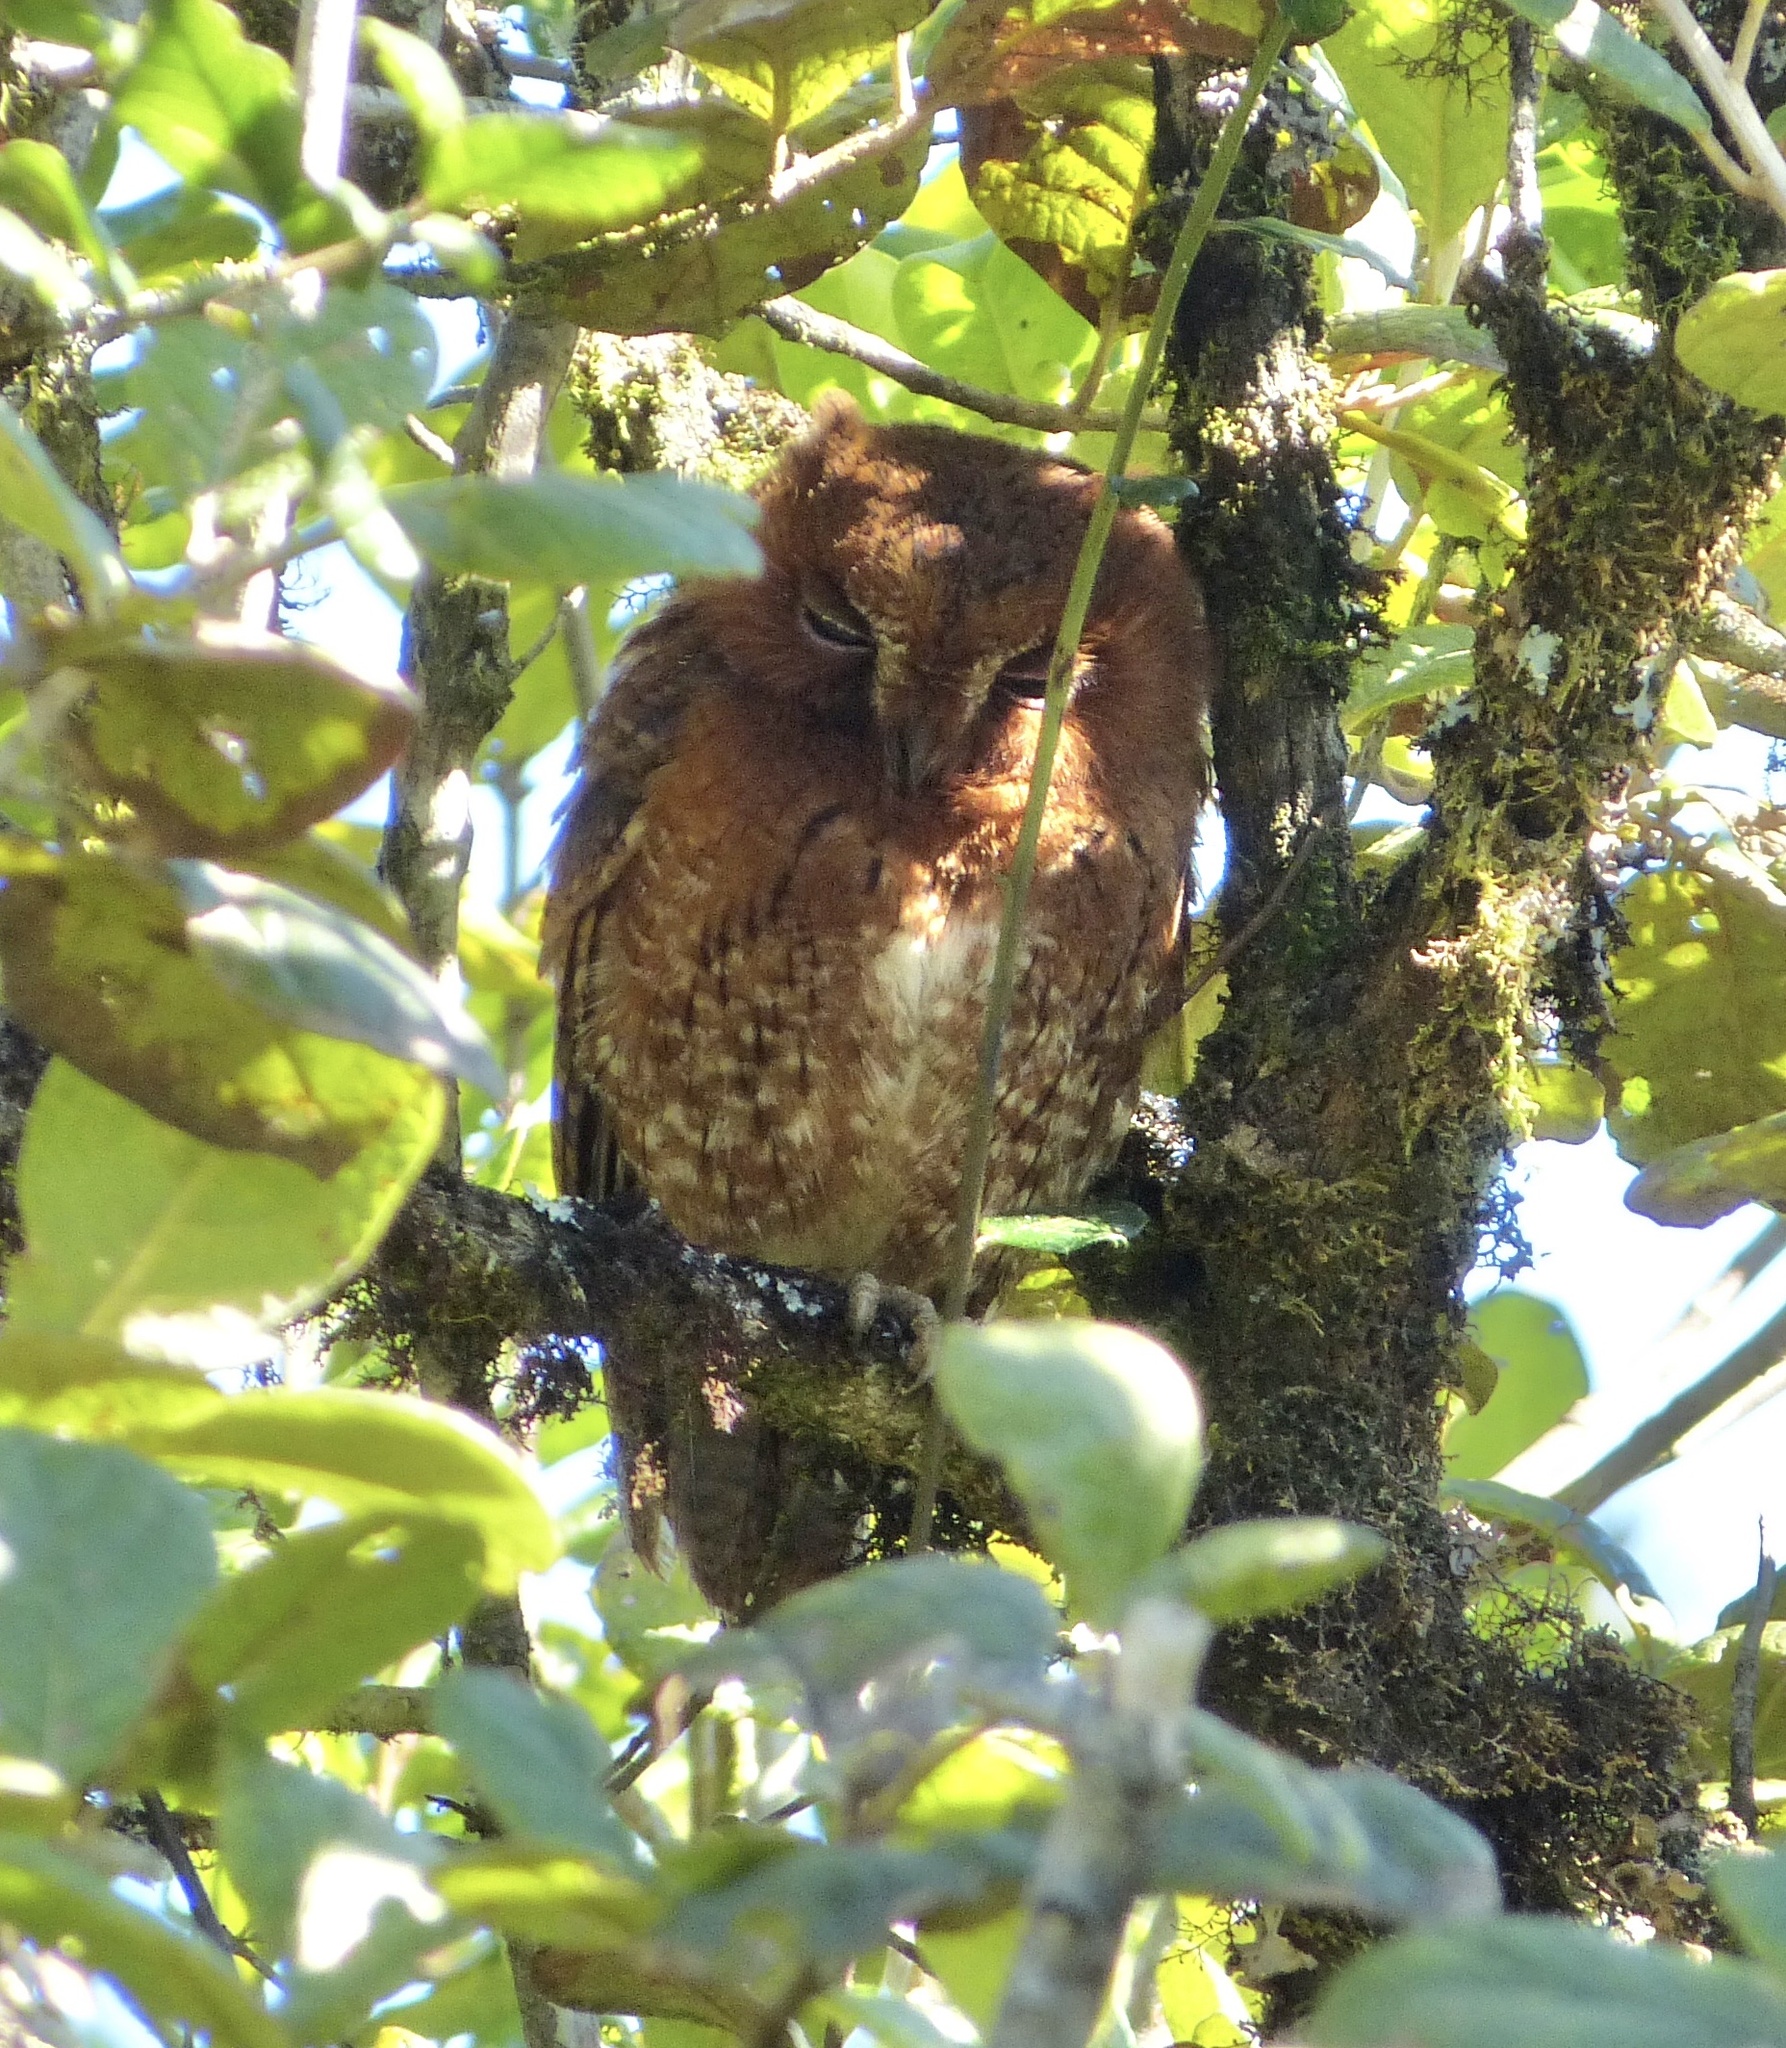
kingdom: Animalia
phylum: Chordata
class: Aves
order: Strigiformes
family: Strigidae
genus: Otus
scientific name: Otus rutilus
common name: Rainforest scops owl
